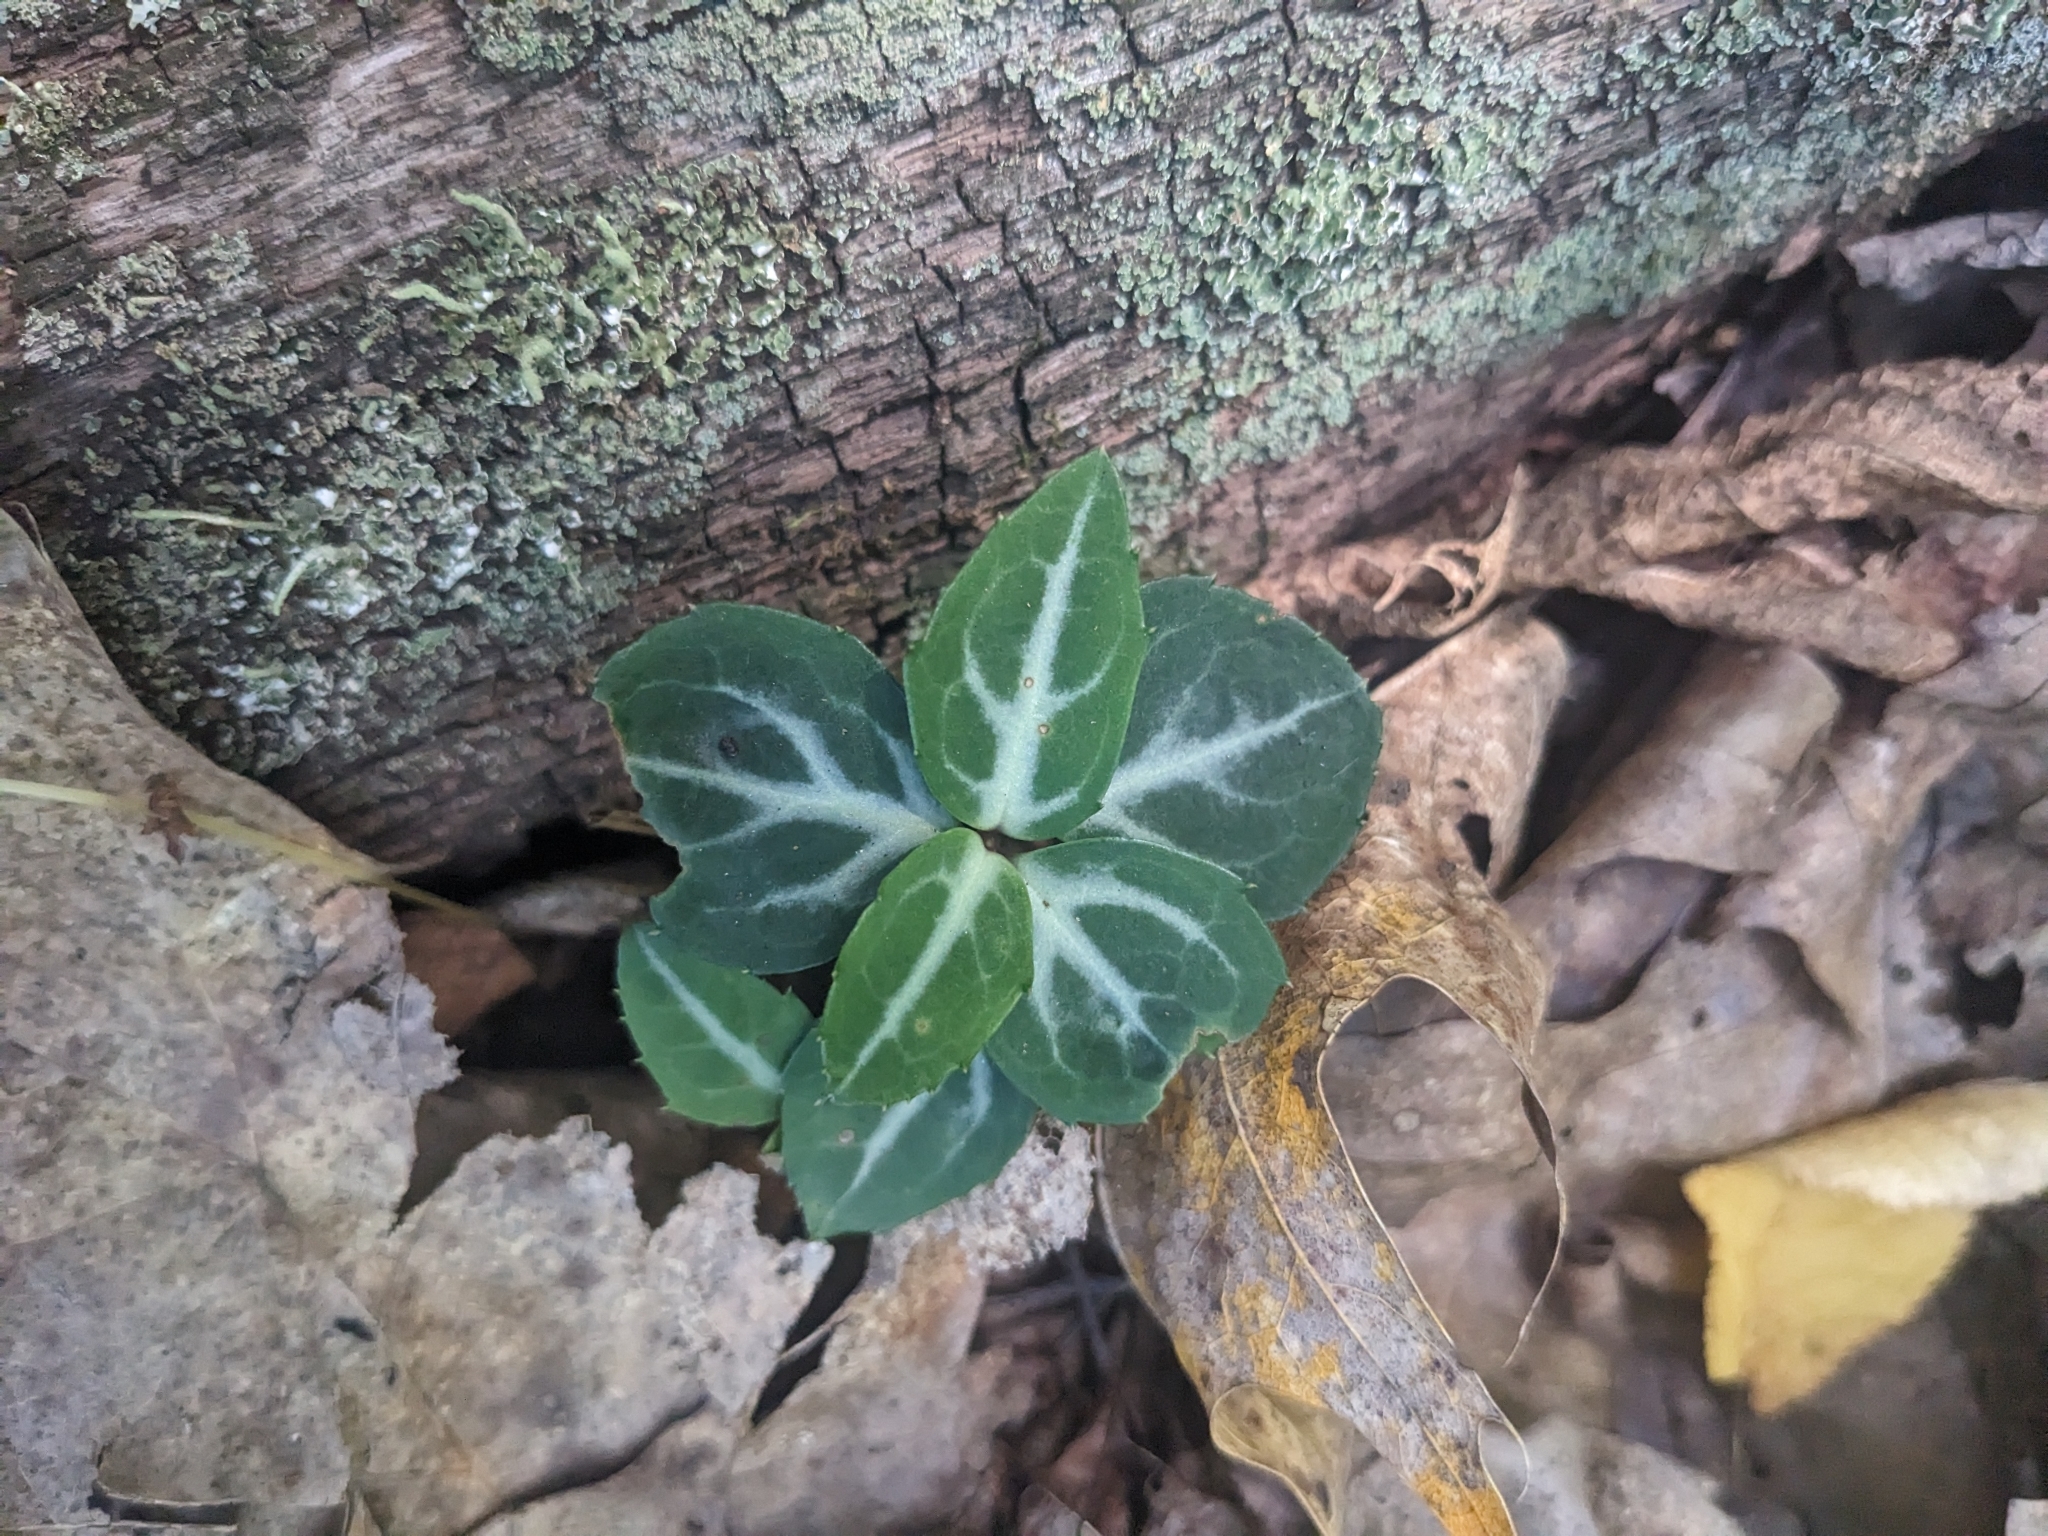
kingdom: Plantae
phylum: Tracheophyta
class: Magnoliopsida
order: Ericales
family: Ericaceae
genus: Chimaphila
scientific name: Chimaphila maculata
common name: Spotted pipsissewa
